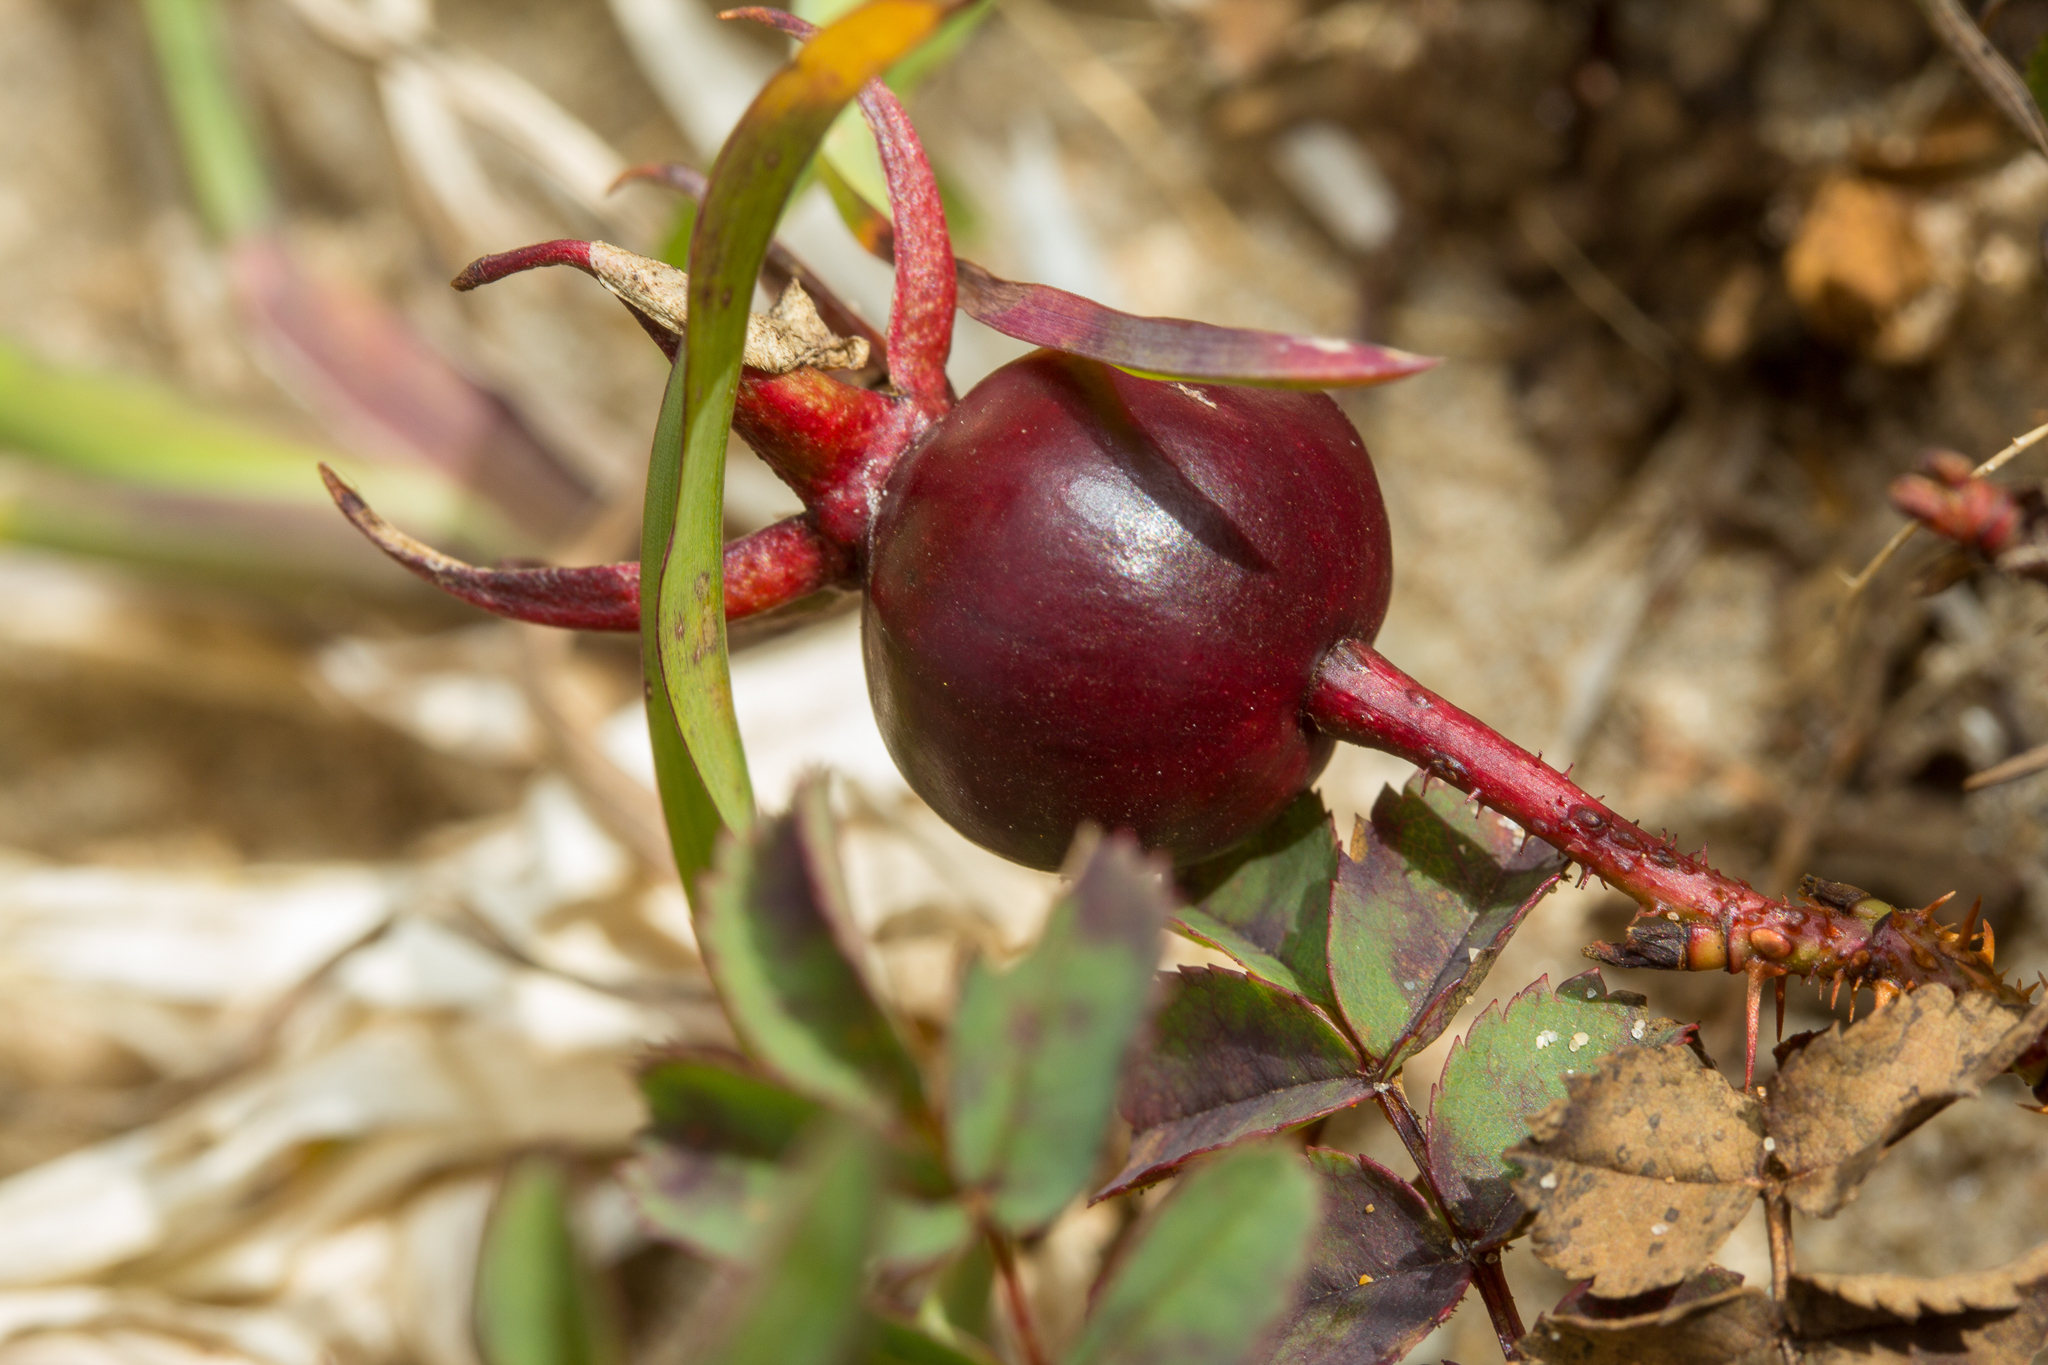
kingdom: Plantae
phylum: Tracheophyta
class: Magnoliopsida
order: Rosales
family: Rosaceae
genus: Rosa
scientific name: Rosa spinosissima
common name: Burnet rose
